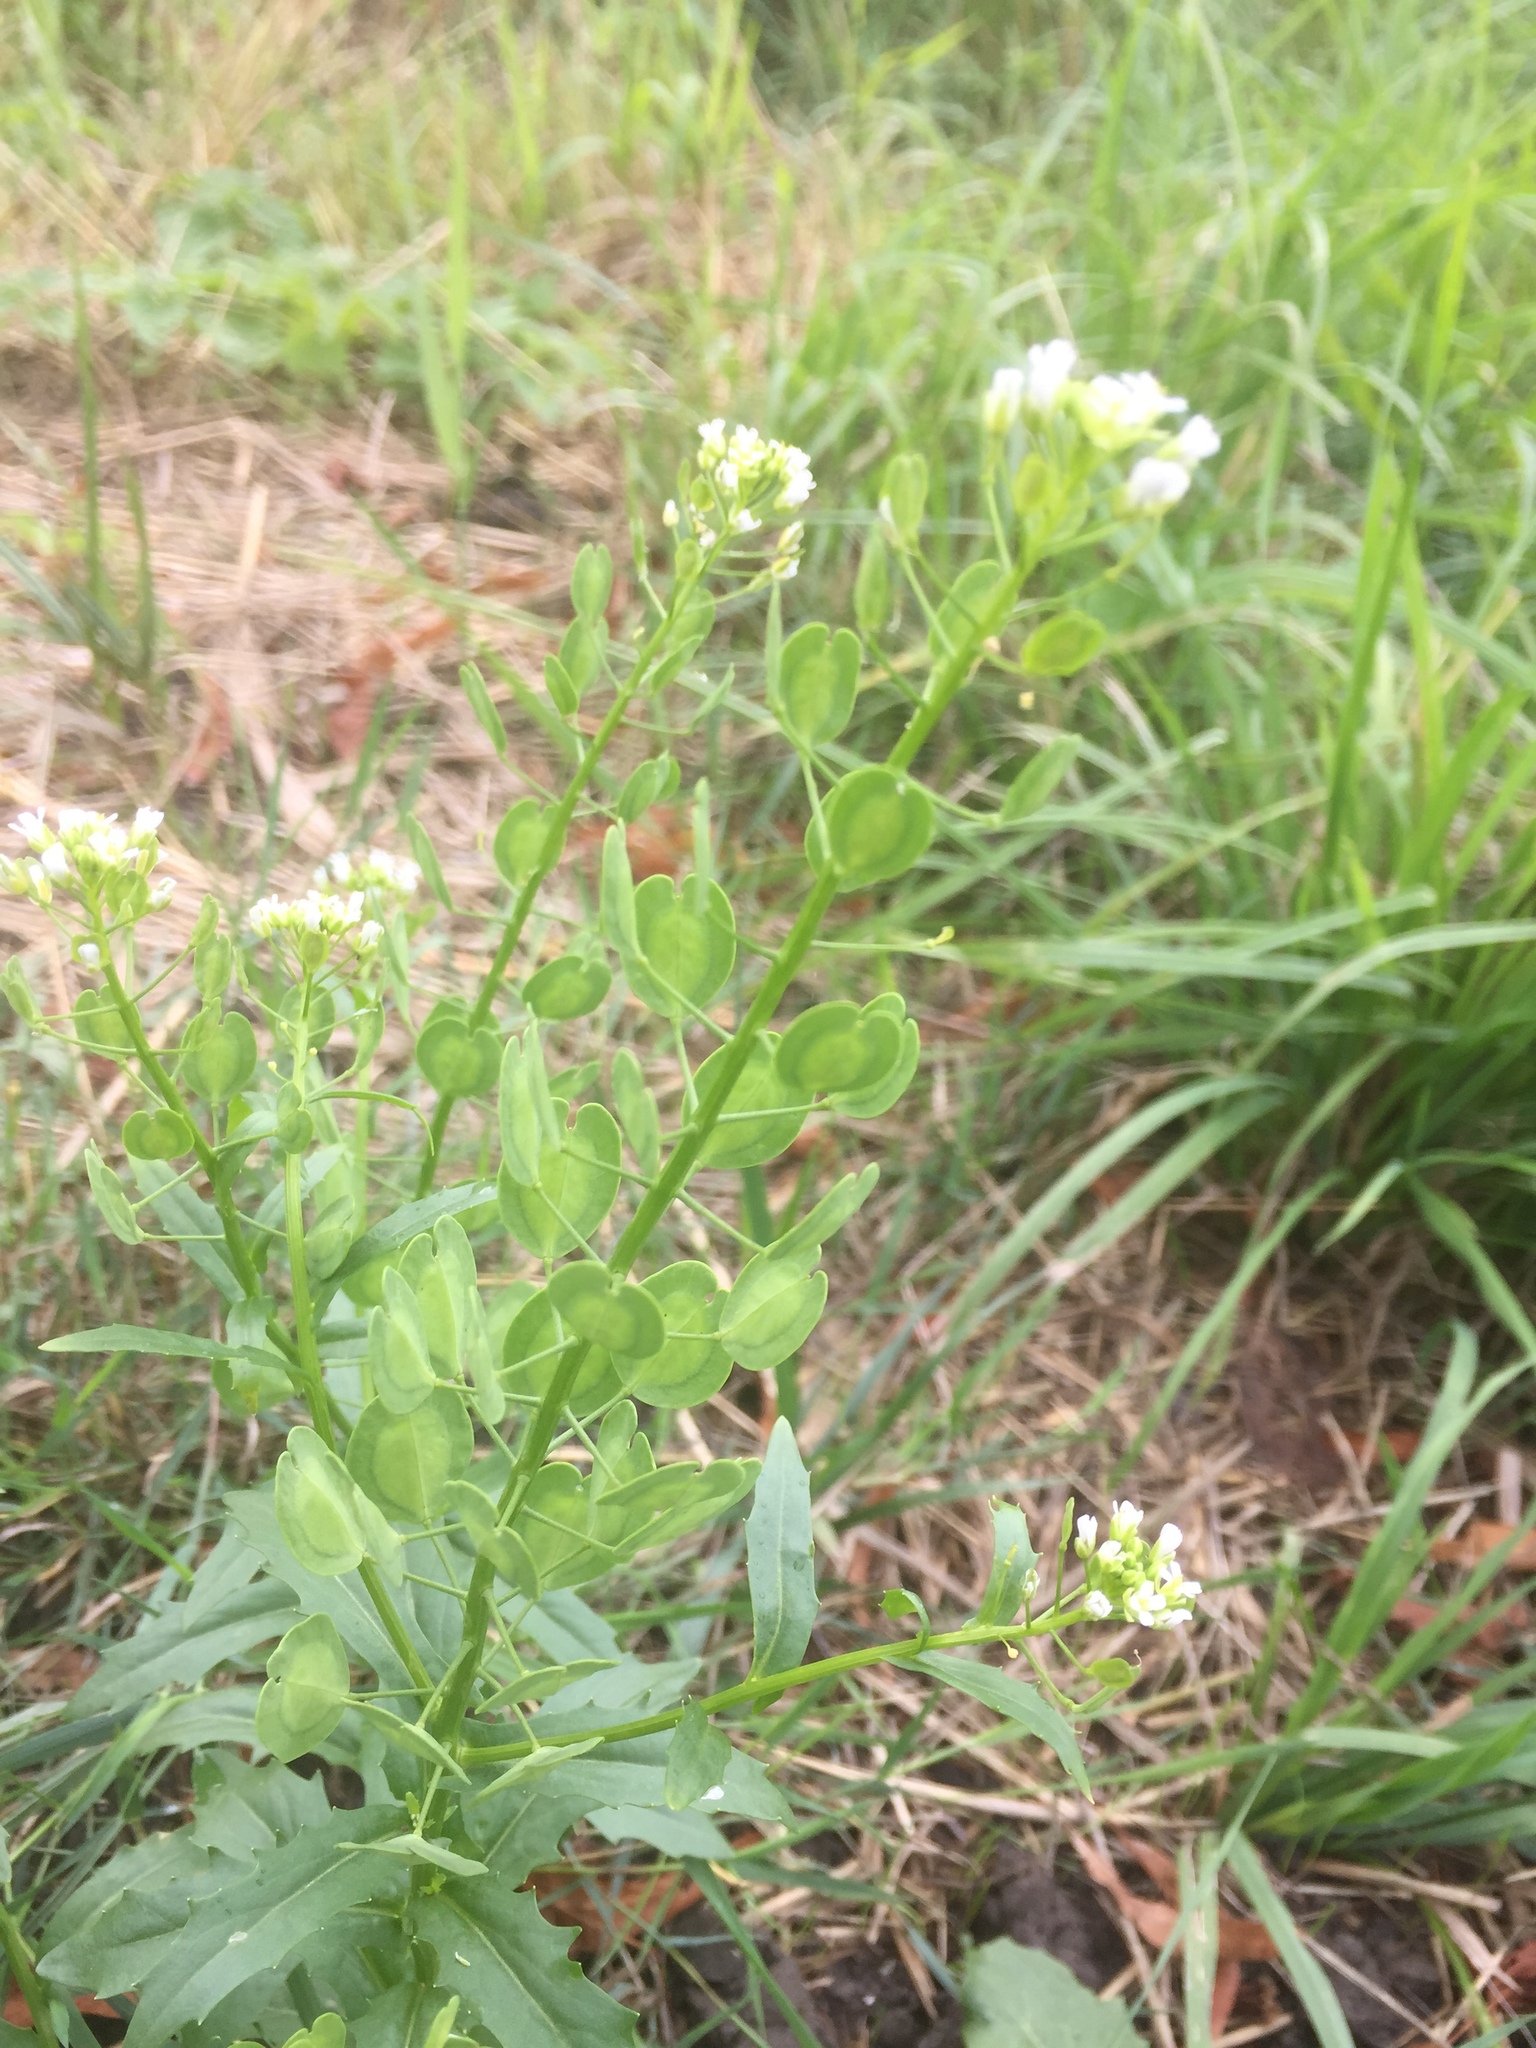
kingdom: Plantae
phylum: Tracheophyta
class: Magnoliopsida
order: Brassicales
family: Brassicaceae
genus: Thlaspi
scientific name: Thlaspi arvense
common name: Field pennycress
